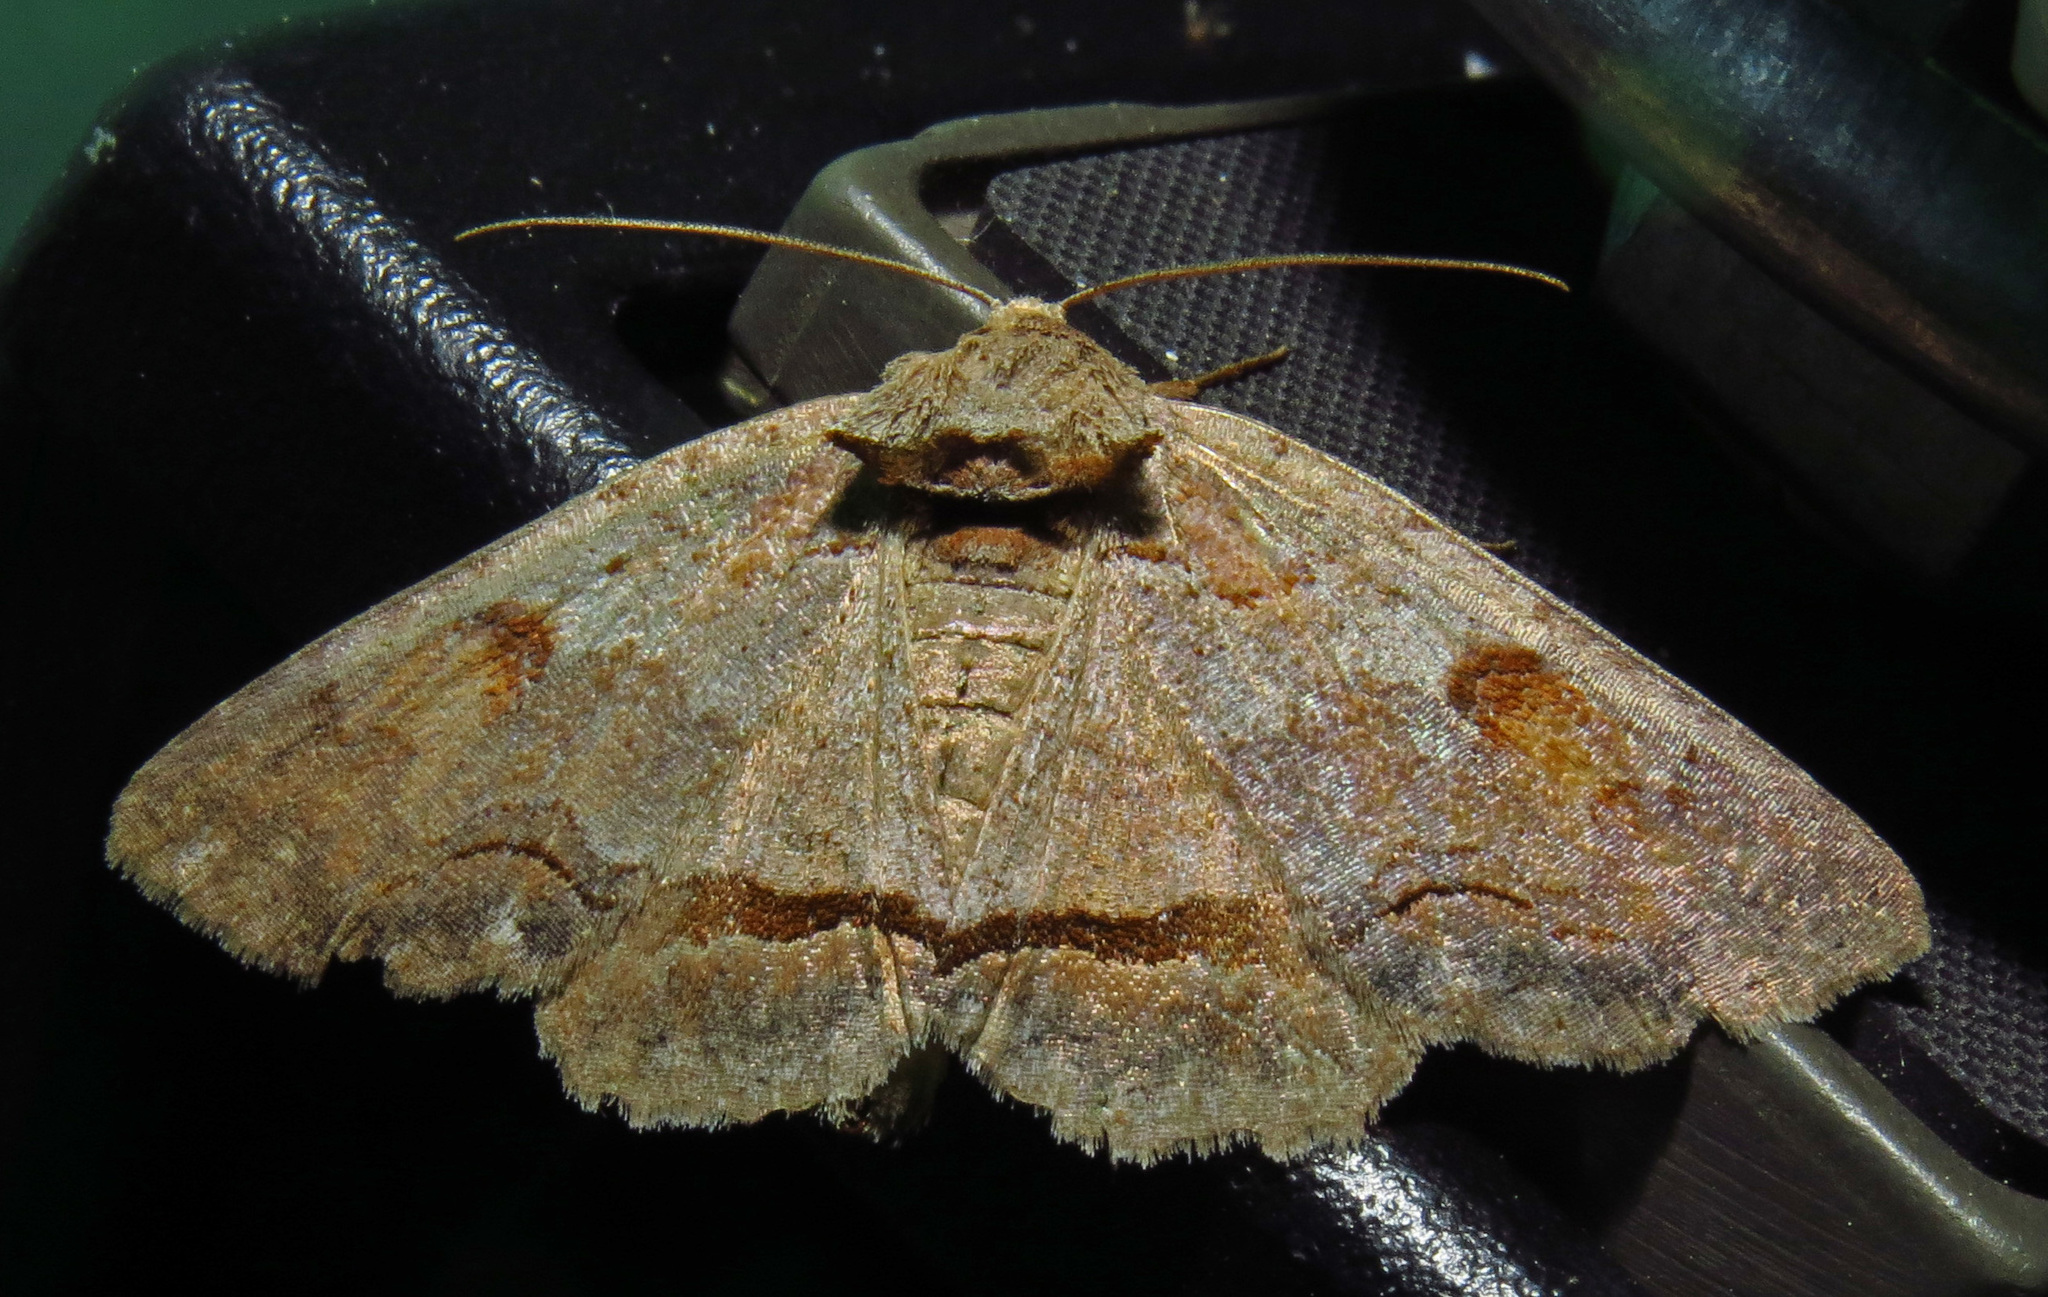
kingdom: Animalia
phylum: Arthropoda
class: Insecta
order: Lepidoptera
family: Erebidae
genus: Zale
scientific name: Zale metatoides
